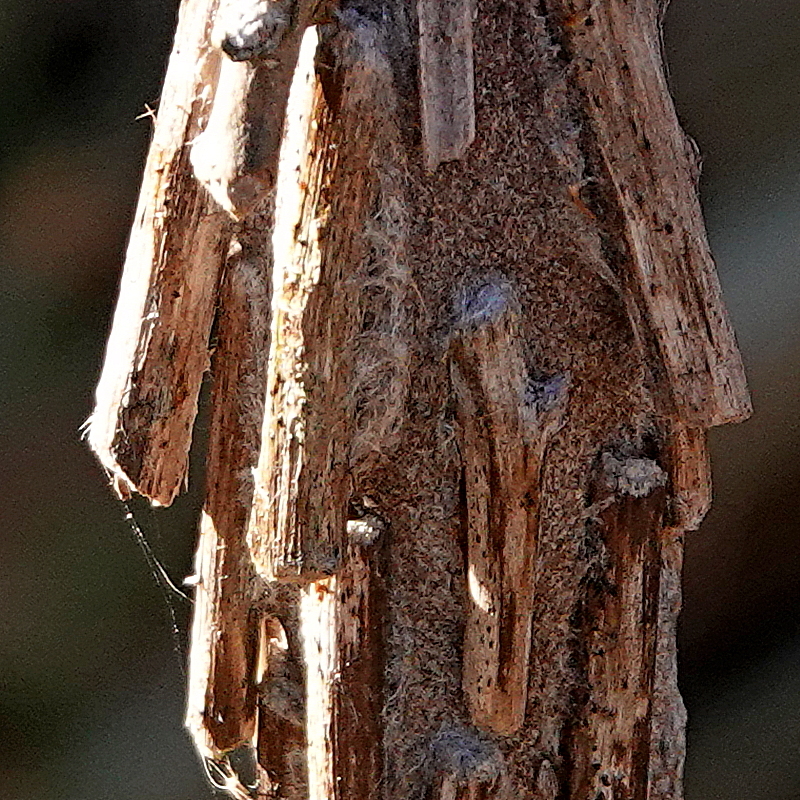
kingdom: Animalia
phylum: Arthropoda
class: Insecta
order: Lepidoptera
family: Psychidae
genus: Metura
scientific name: Metura elongatus
